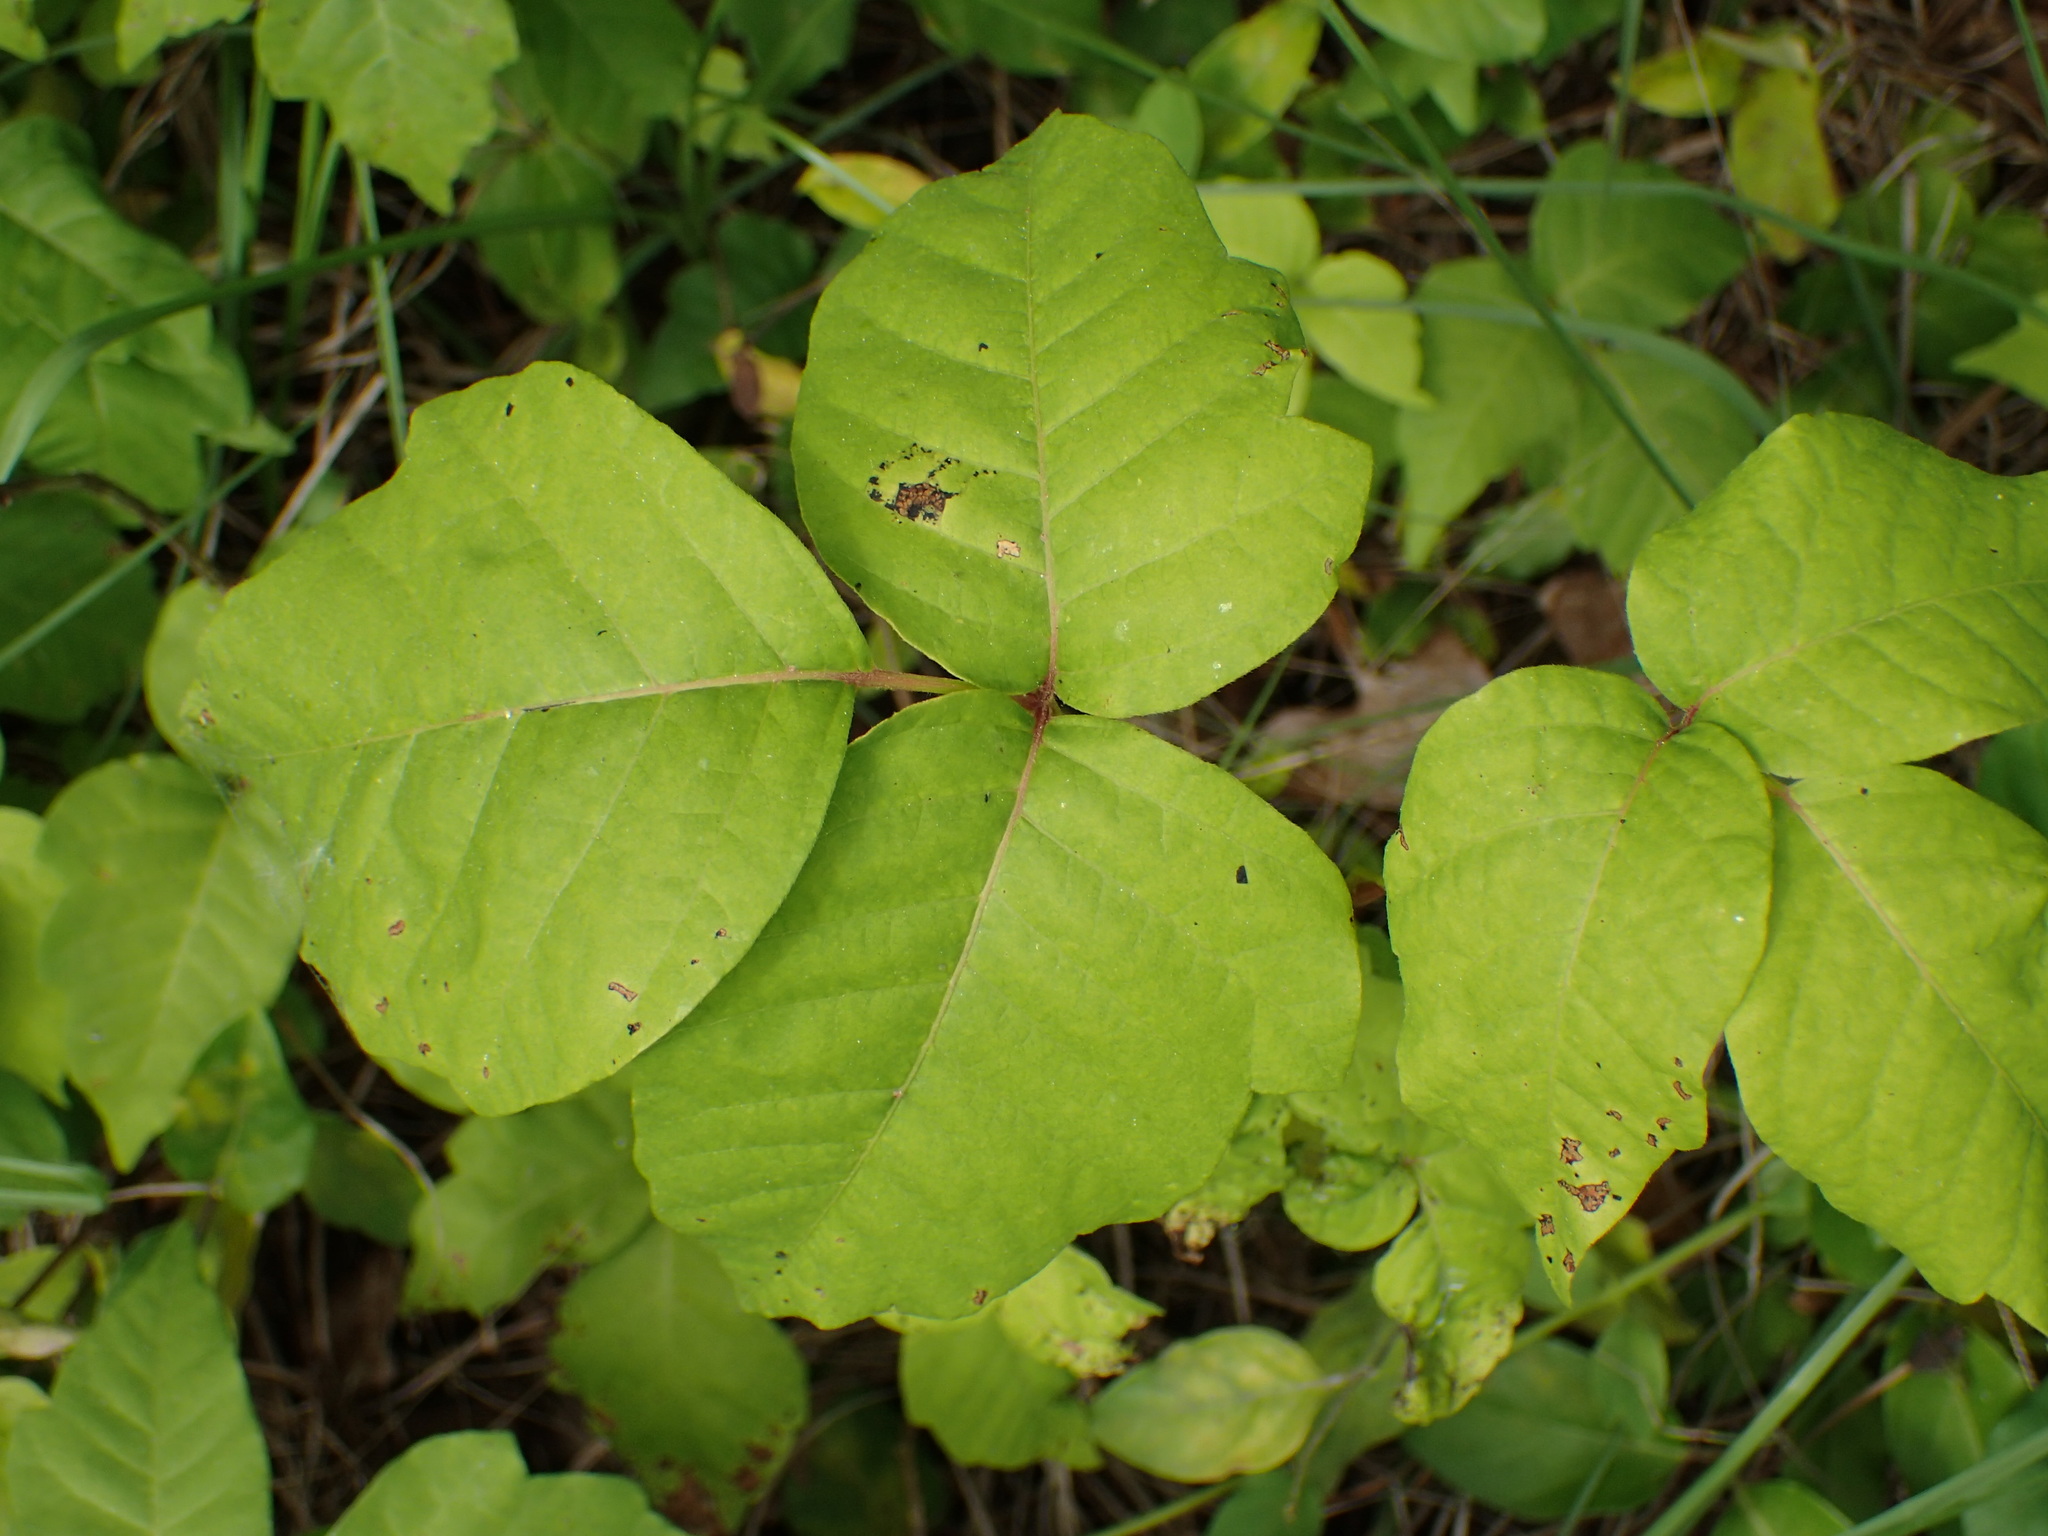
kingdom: Plantae
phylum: Tracheophyta
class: Magnoliopsida
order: Sapindales
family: Anacardiaceae
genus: Toxicodendron
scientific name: Toxicodendron radicans
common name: Poison ivy
